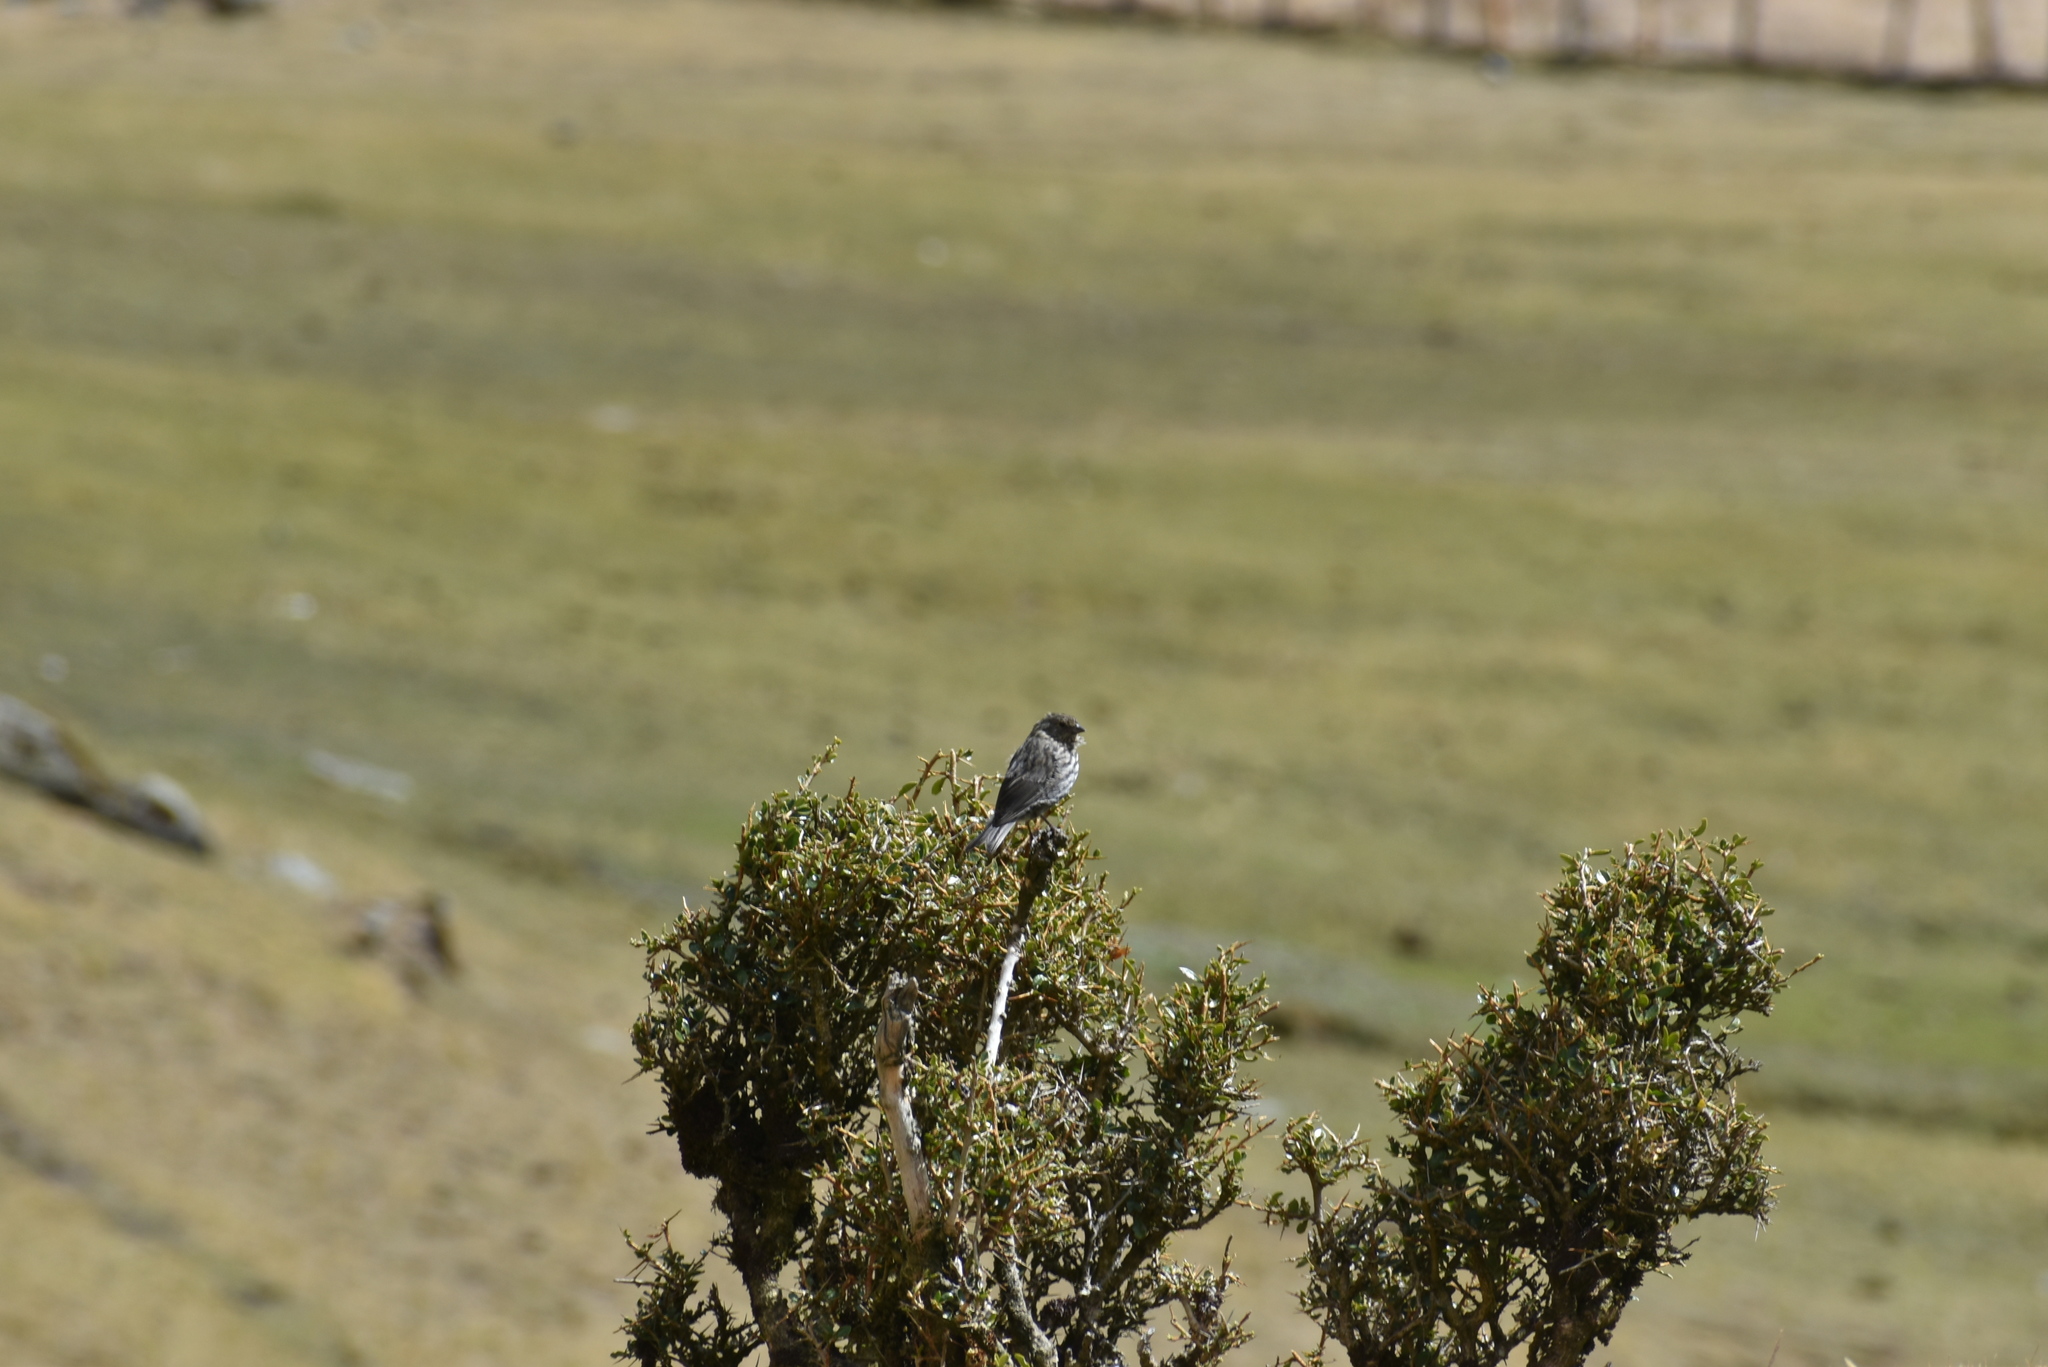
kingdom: Animalia
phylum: Chordata
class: Aves
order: Passeriformes
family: Thraupidae
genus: Geospizopsis
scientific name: Geospizopsis plebejus
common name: Ash-breasted sierra-finch
